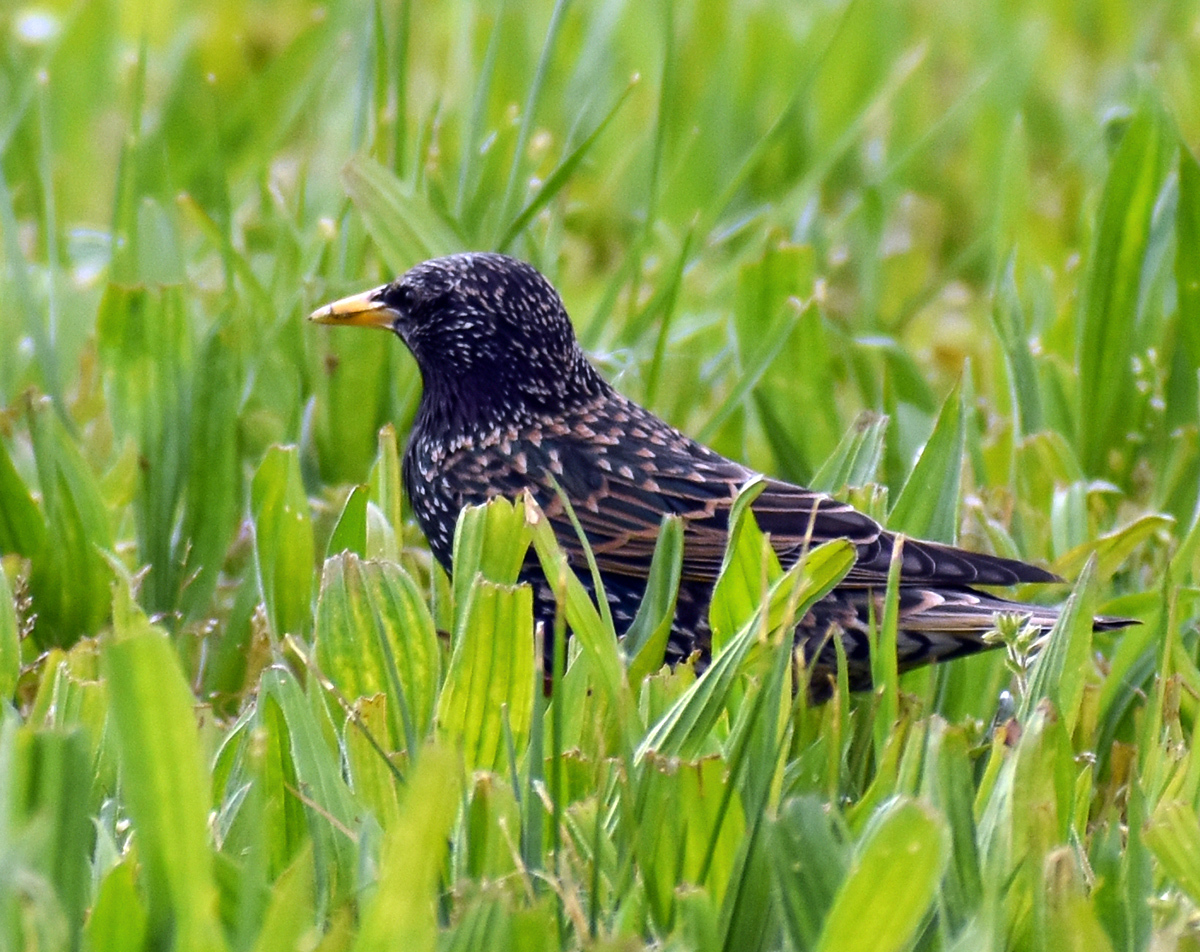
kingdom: Animalia
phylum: Chordata
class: Aves
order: Passeriformes
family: Sturnidae
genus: Sturnus
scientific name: Sturnus vulgaris
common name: Common starling
